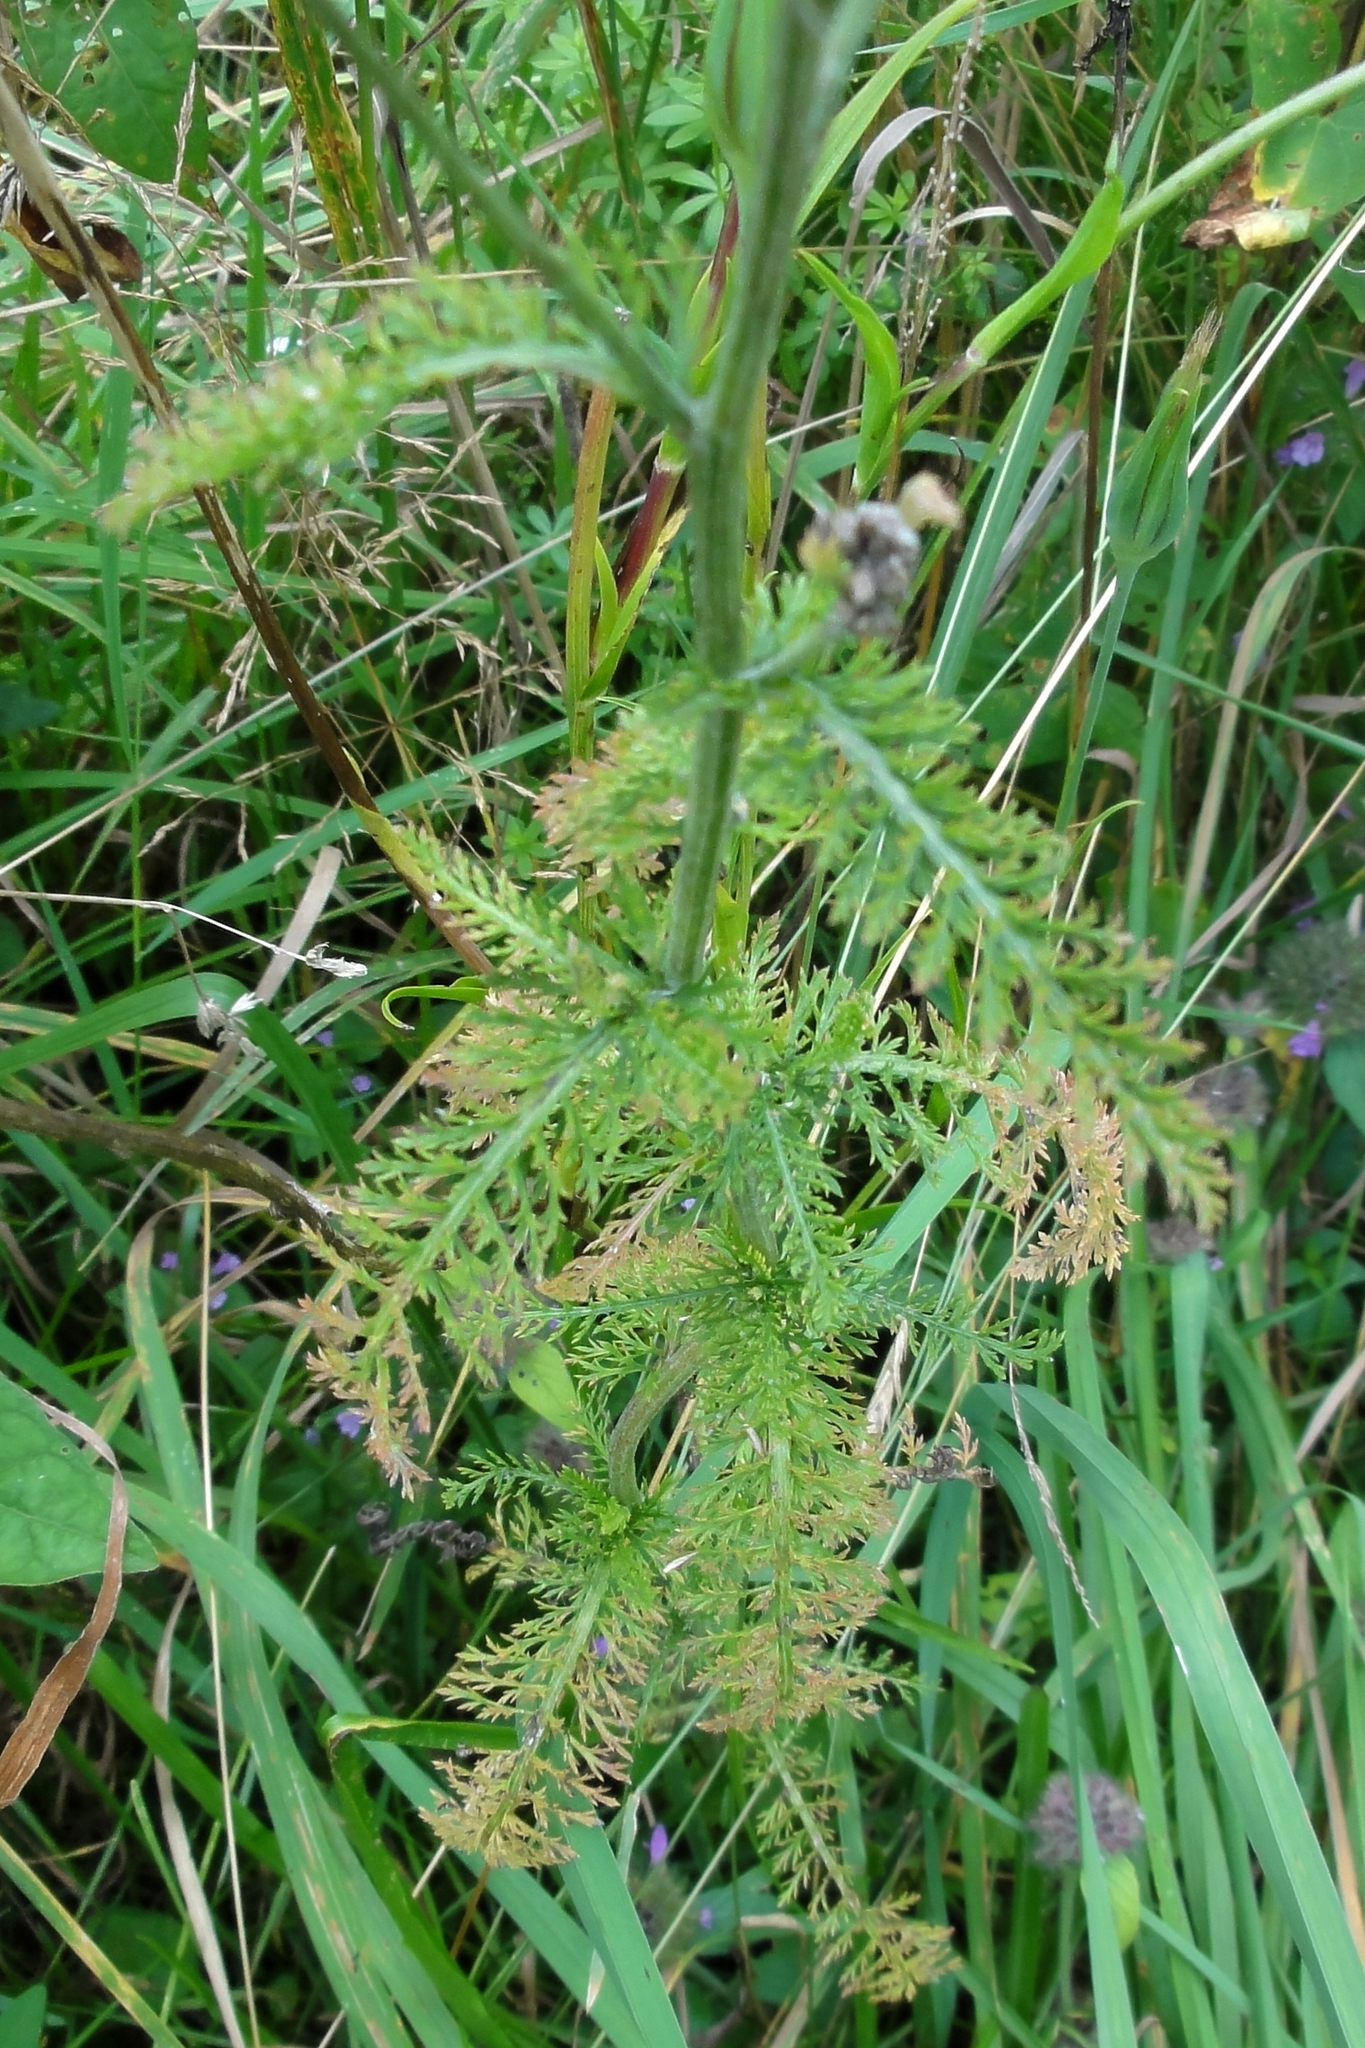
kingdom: Plantae
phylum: Tracheophyta
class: Magnoliopsida
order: Asterales
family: Asteraceae
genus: Achillea
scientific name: Achillea millefolium
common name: Yarrow
